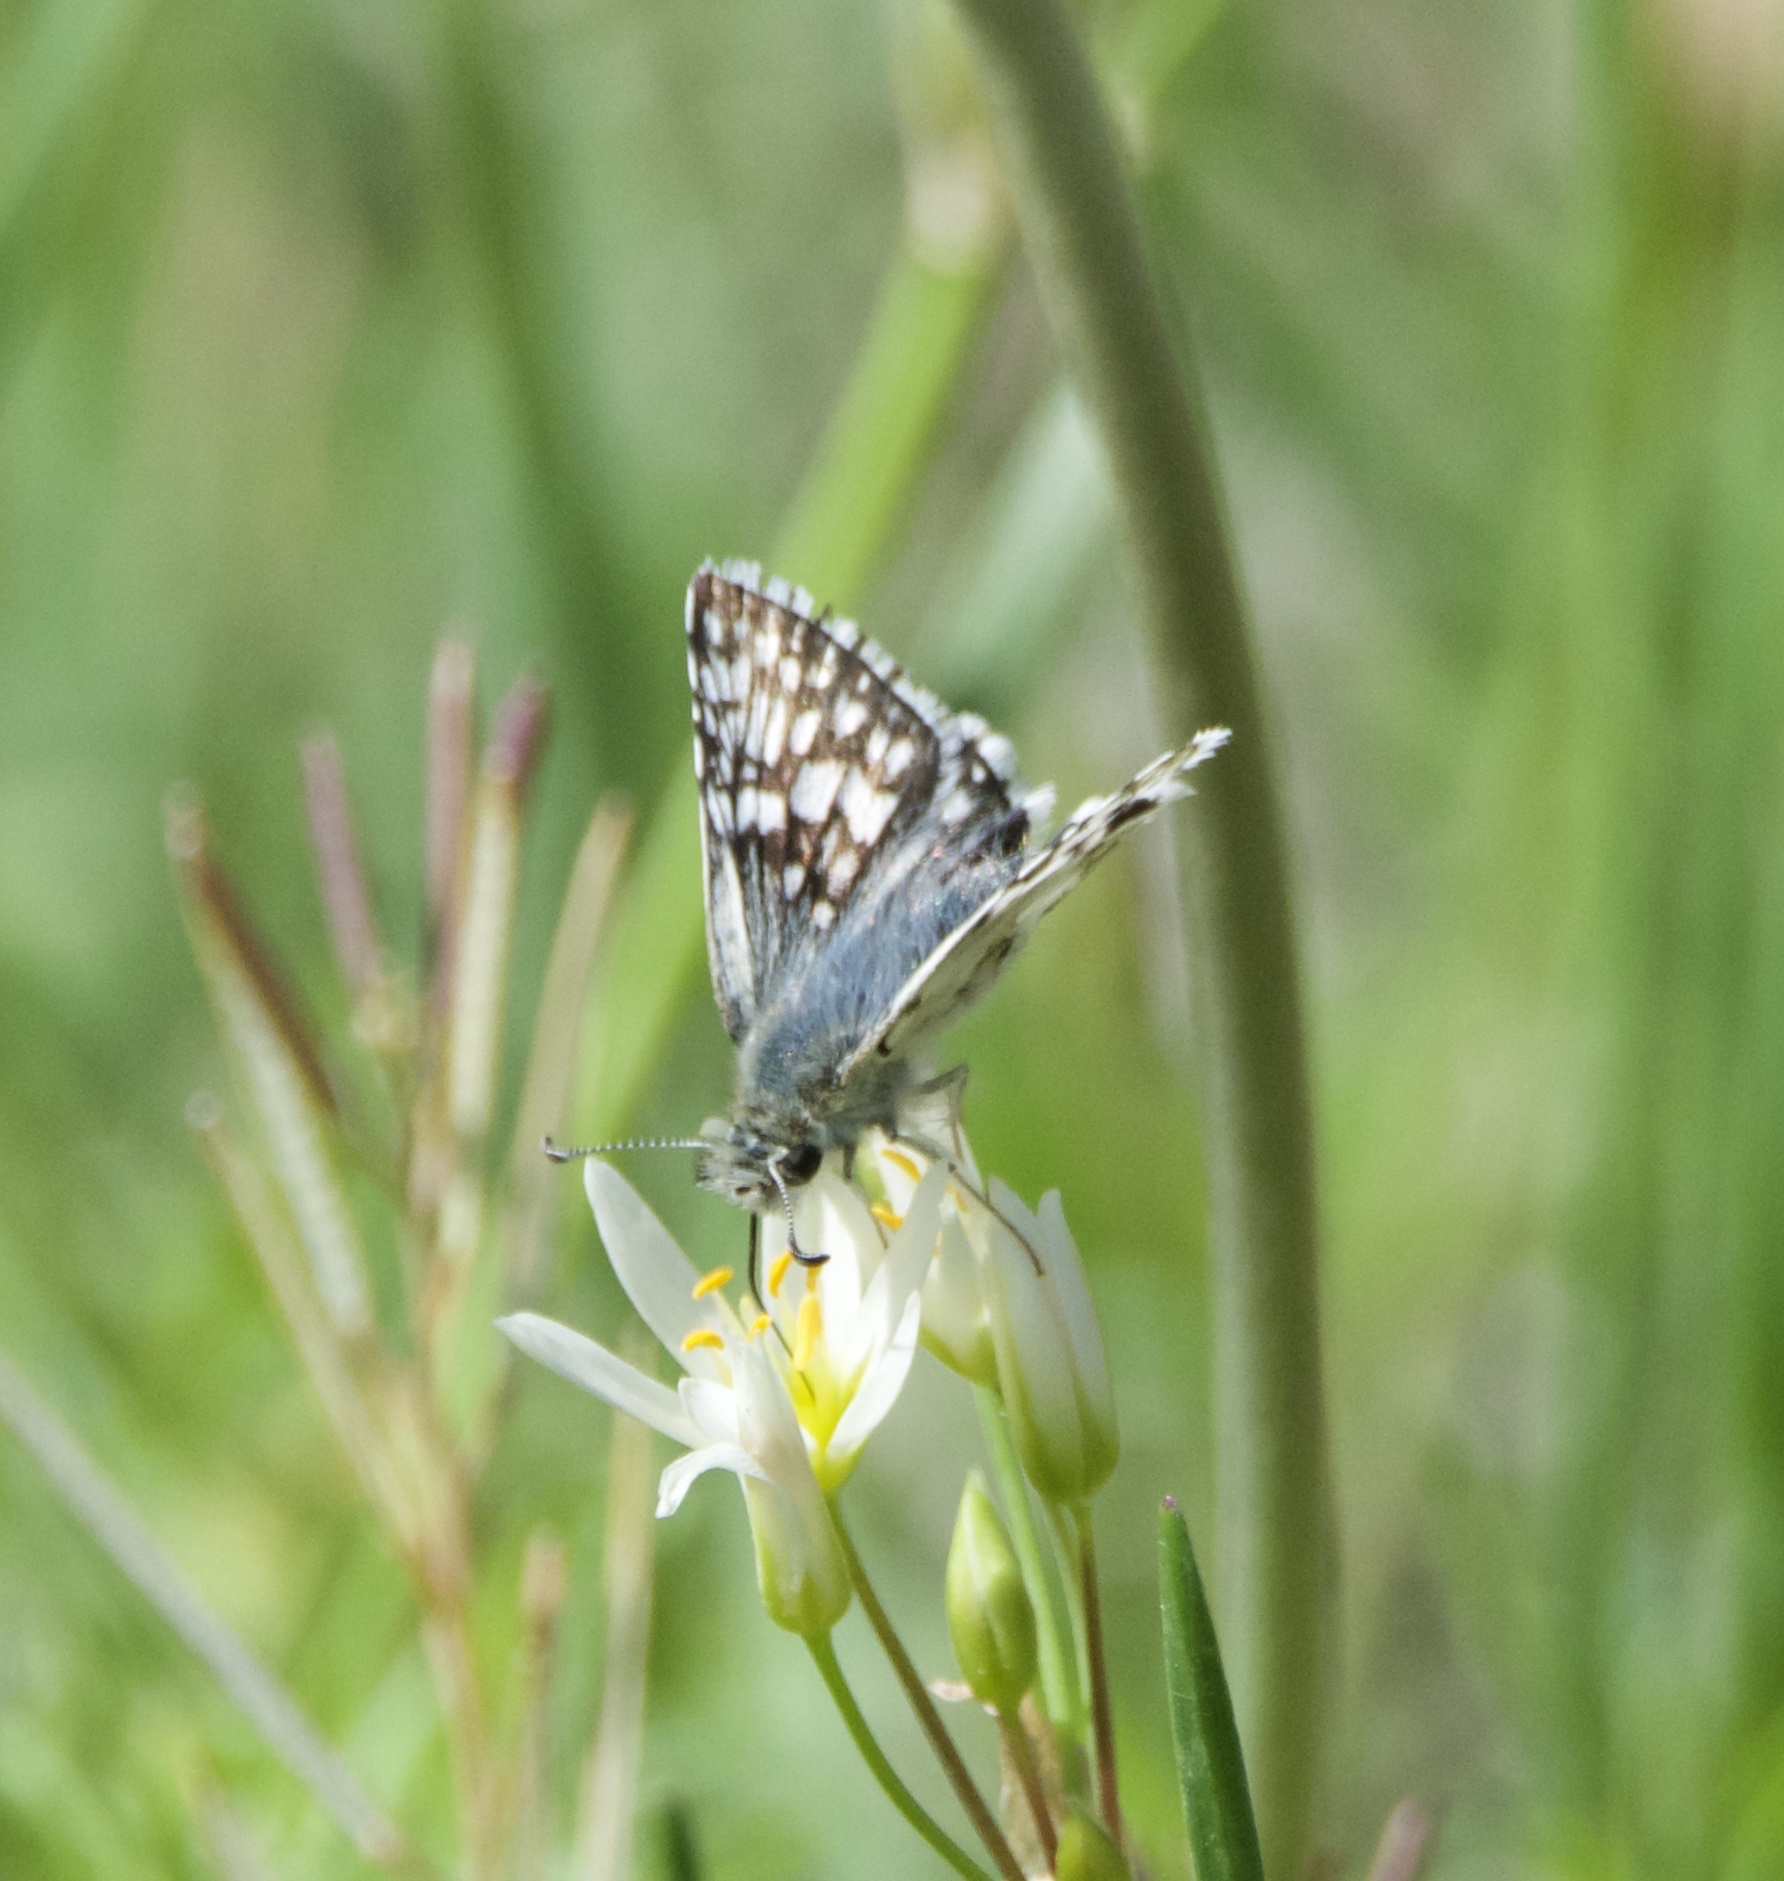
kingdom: Animalia
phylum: Arthropoda
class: Insecta
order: Lepidoptera
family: Hesperiidae
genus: Burnsius
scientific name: Burnsius communis
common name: Common checkered-skipper
